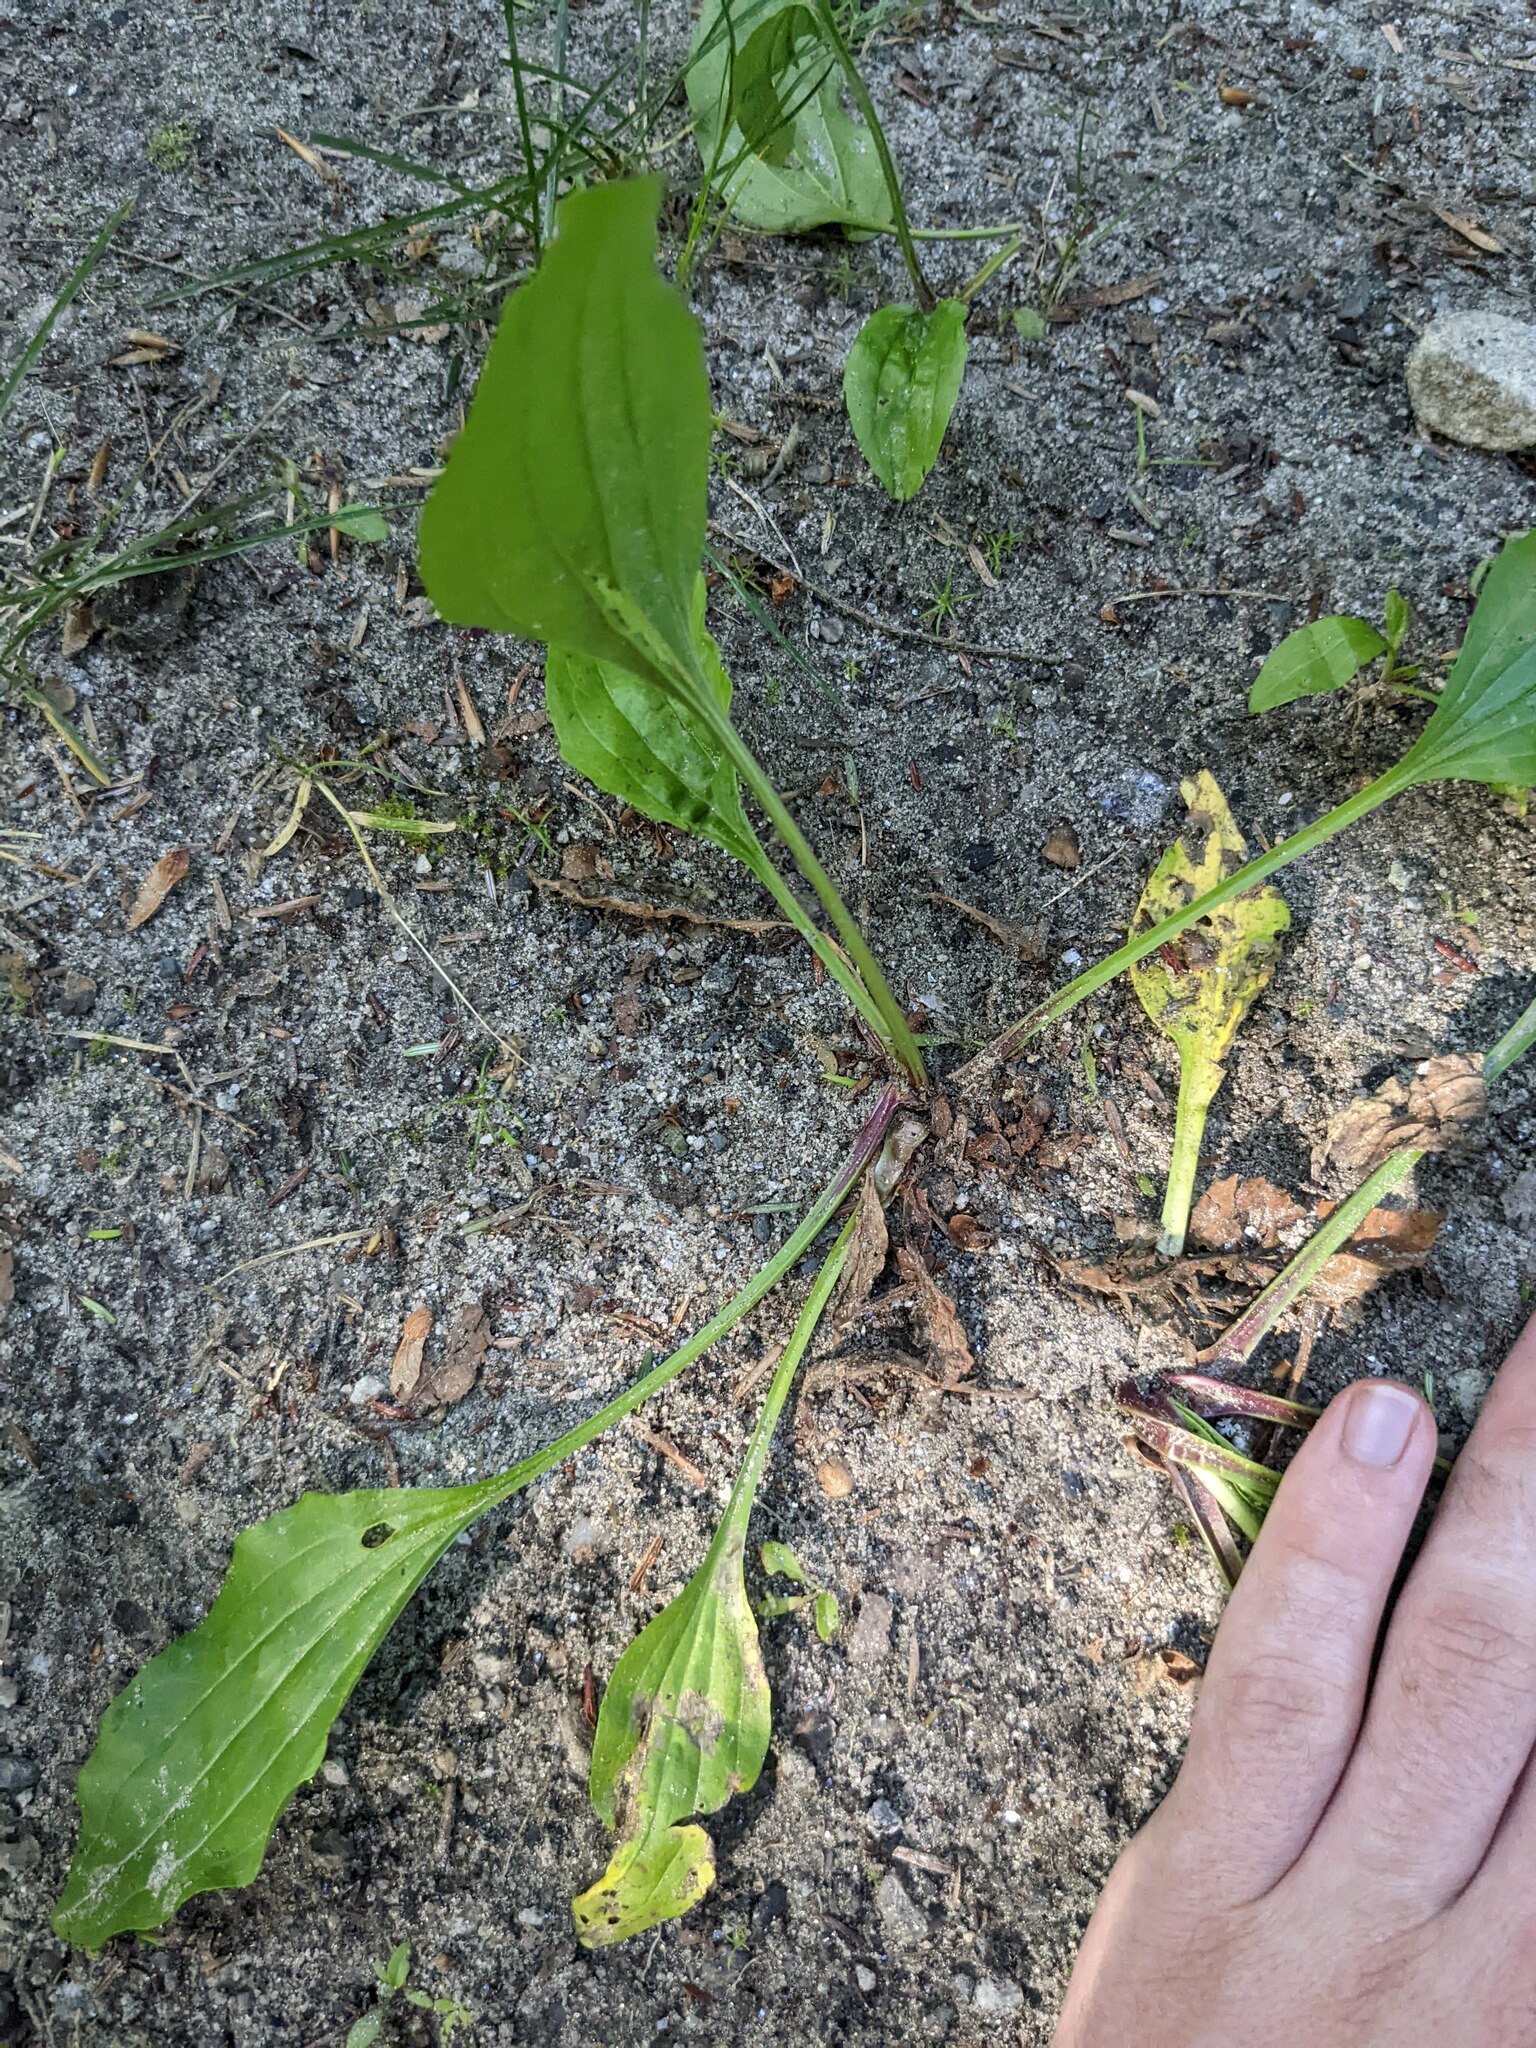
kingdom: Plantae
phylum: Tracheophyta
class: Magnoliopsida
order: Lamiales
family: Plantaginaceae
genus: Plantago
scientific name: Plantago rugelii
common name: American plantain
